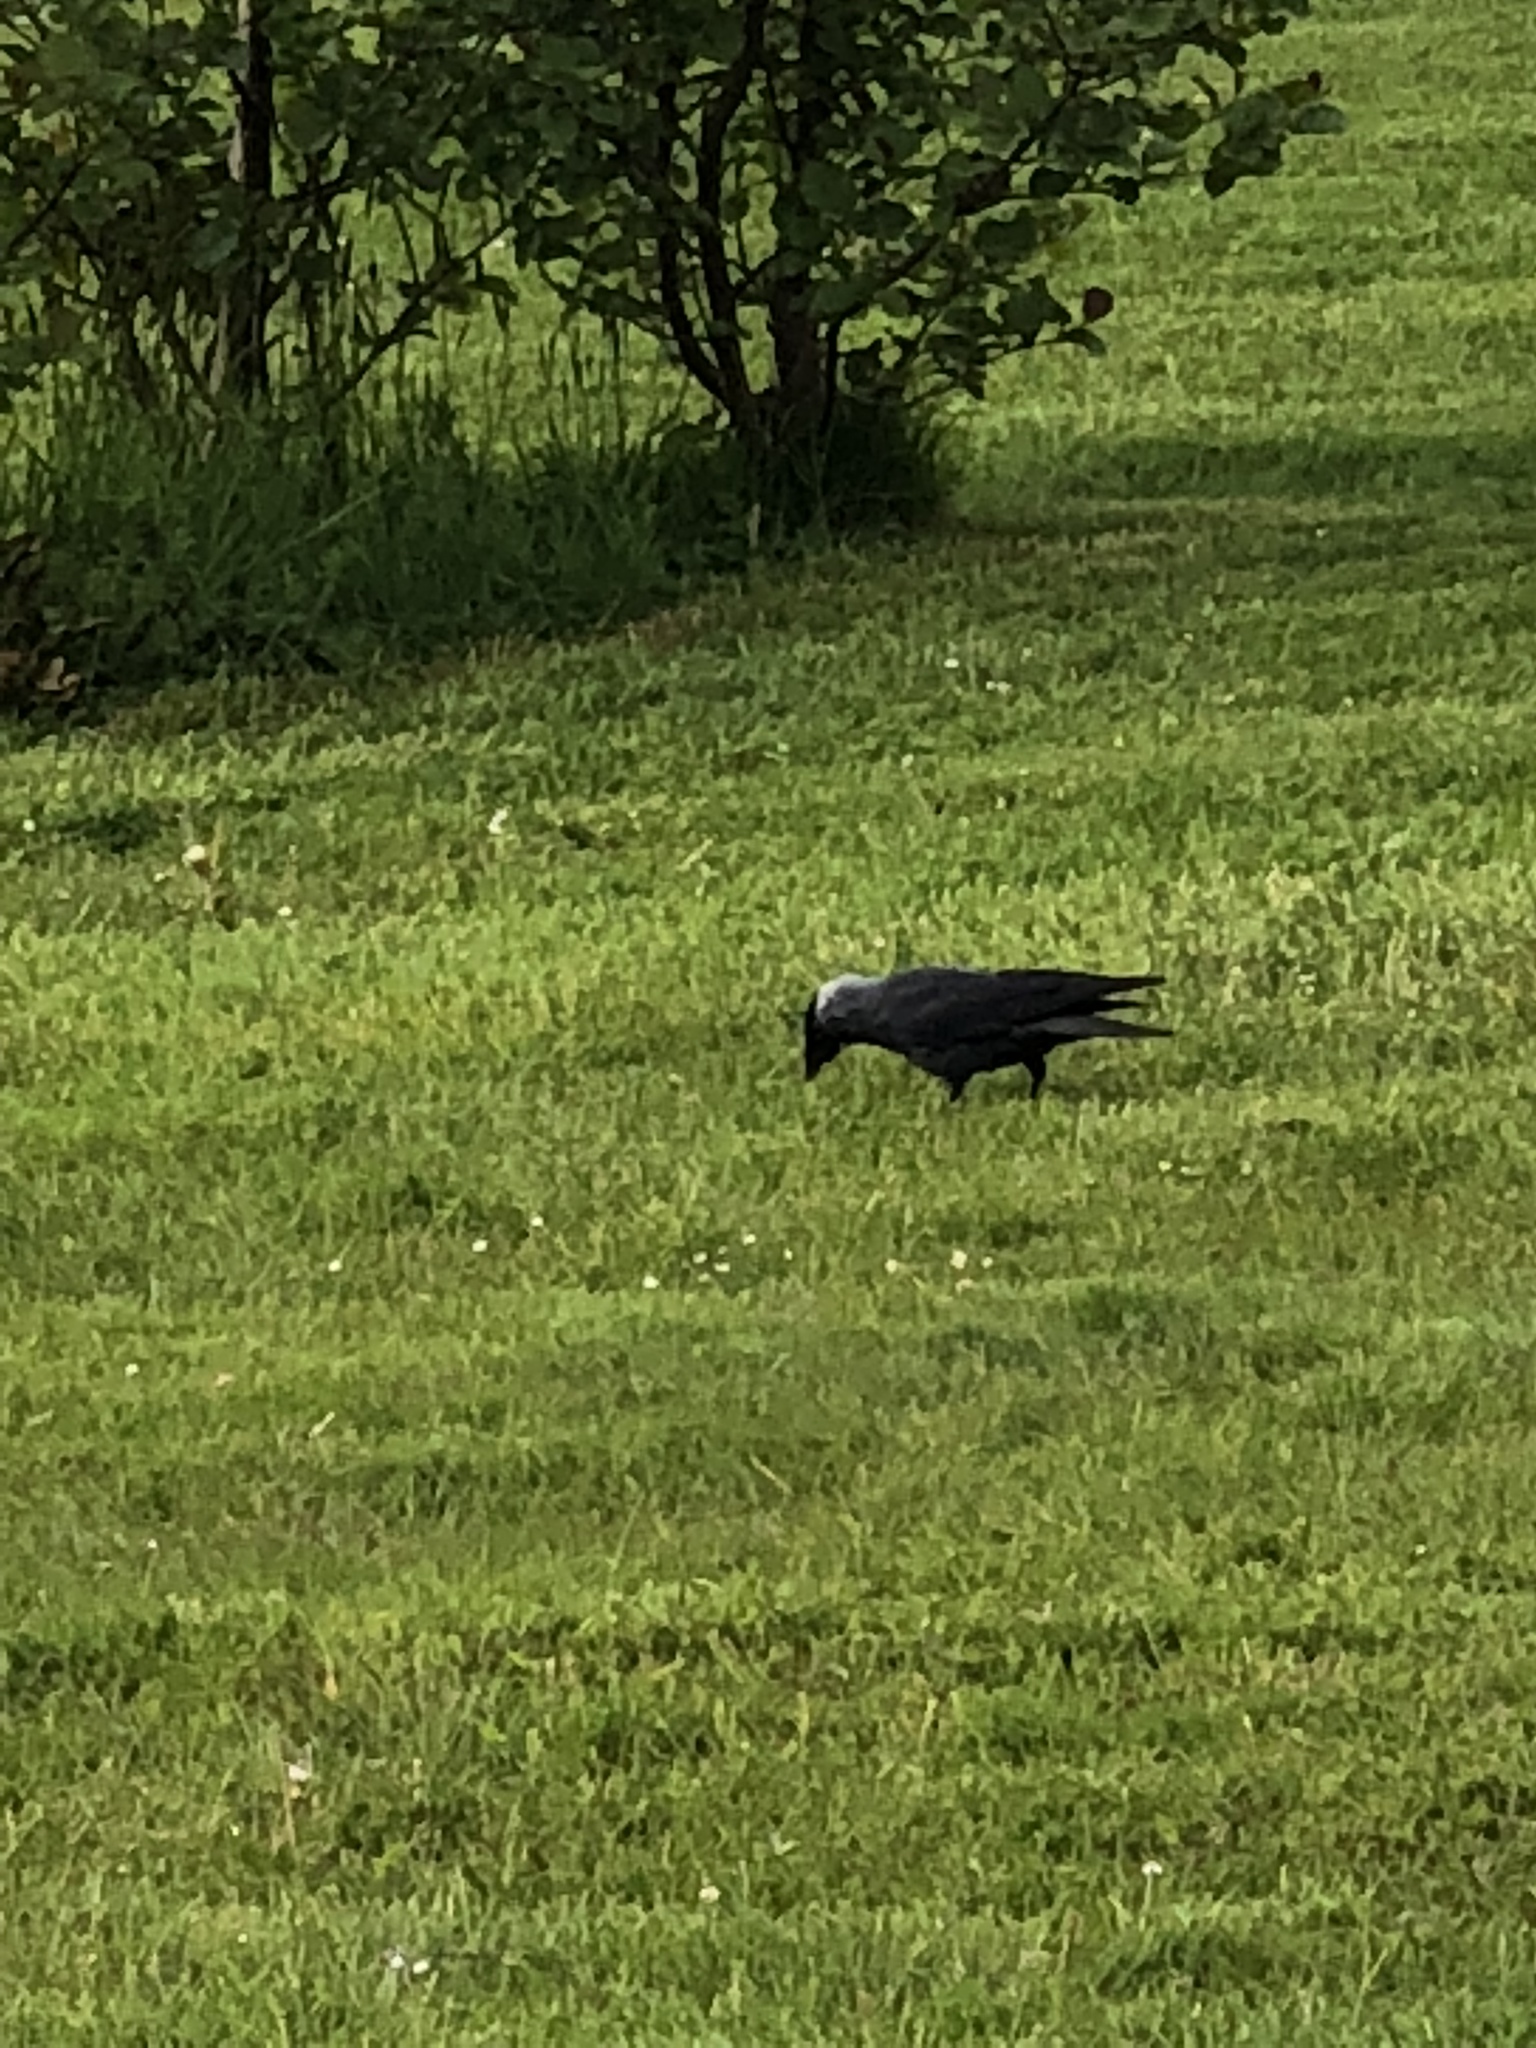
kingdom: Animalia
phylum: Chordata
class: Aves
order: Passeriformes
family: Corvidae
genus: Coloeus
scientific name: Coloeus monedula
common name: Western jackdaw
